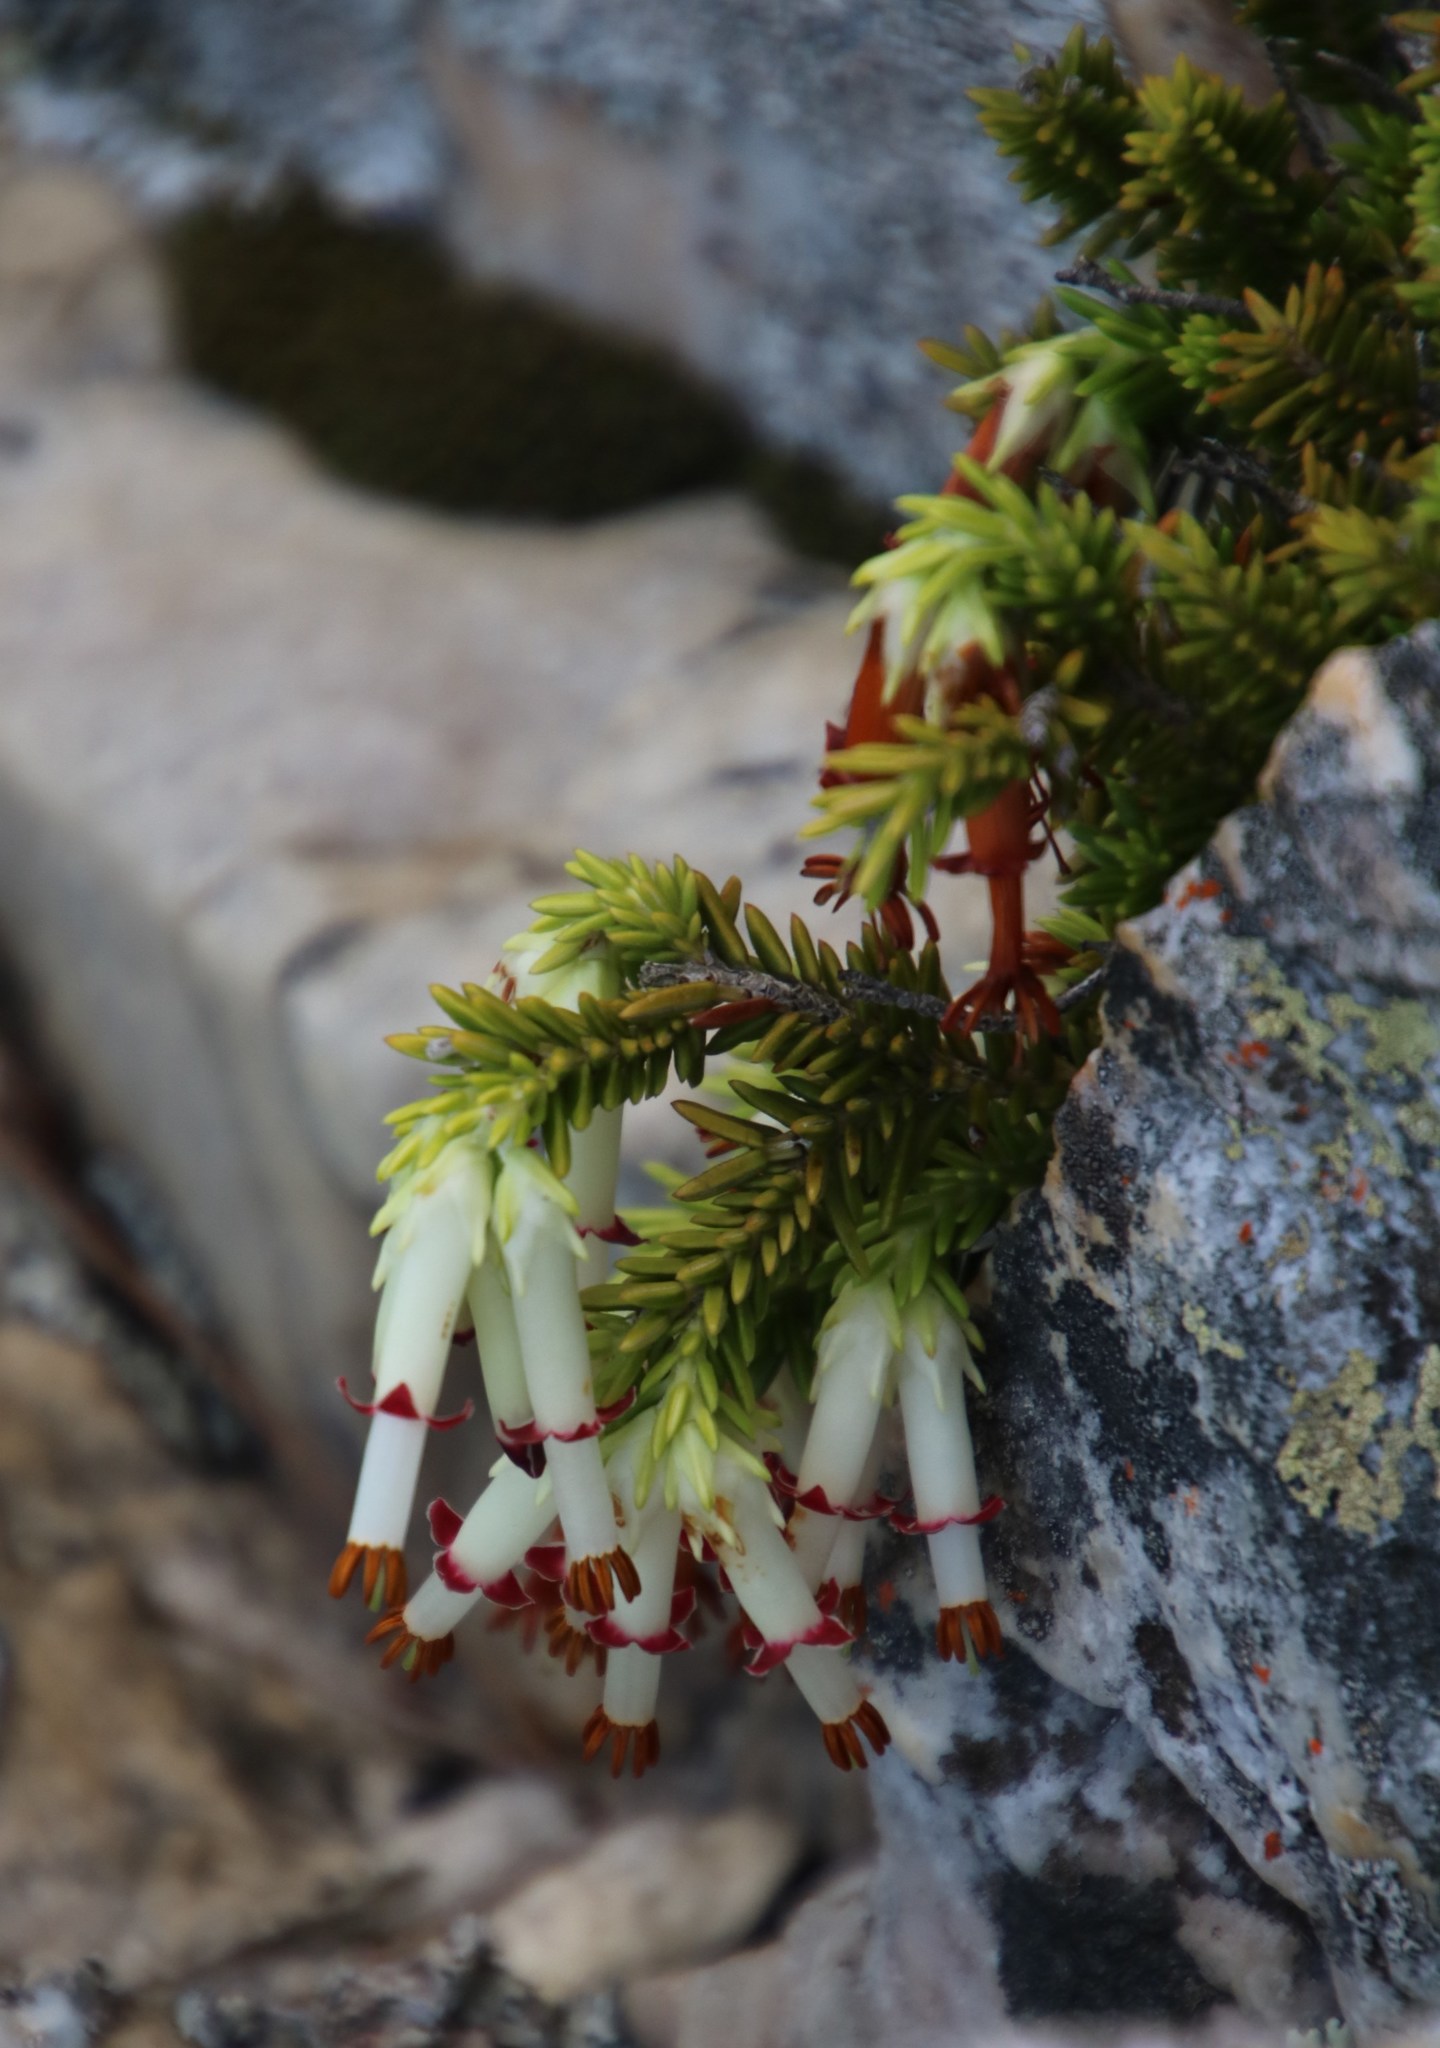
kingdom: Plantae
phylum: Tracheophyta
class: Magnoliopsida
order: Ericales
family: Ericaceae
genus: Erica
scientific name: Erica banksia
